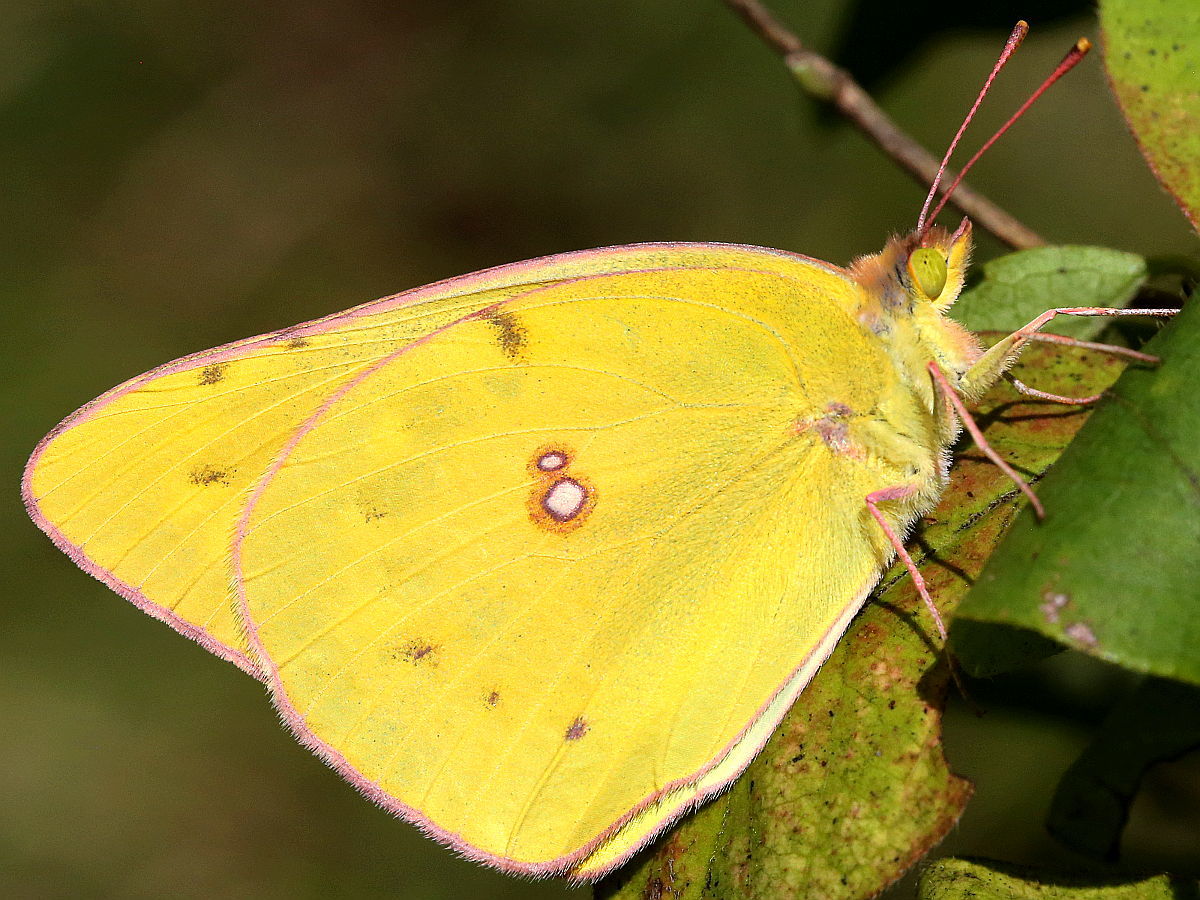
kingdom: Animalia
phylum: Arthropoda
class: Insecta
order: Lepidoptera
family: Pieridae
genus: Colias
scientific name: Colias eurytheme
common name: Alfalfa butterfly
